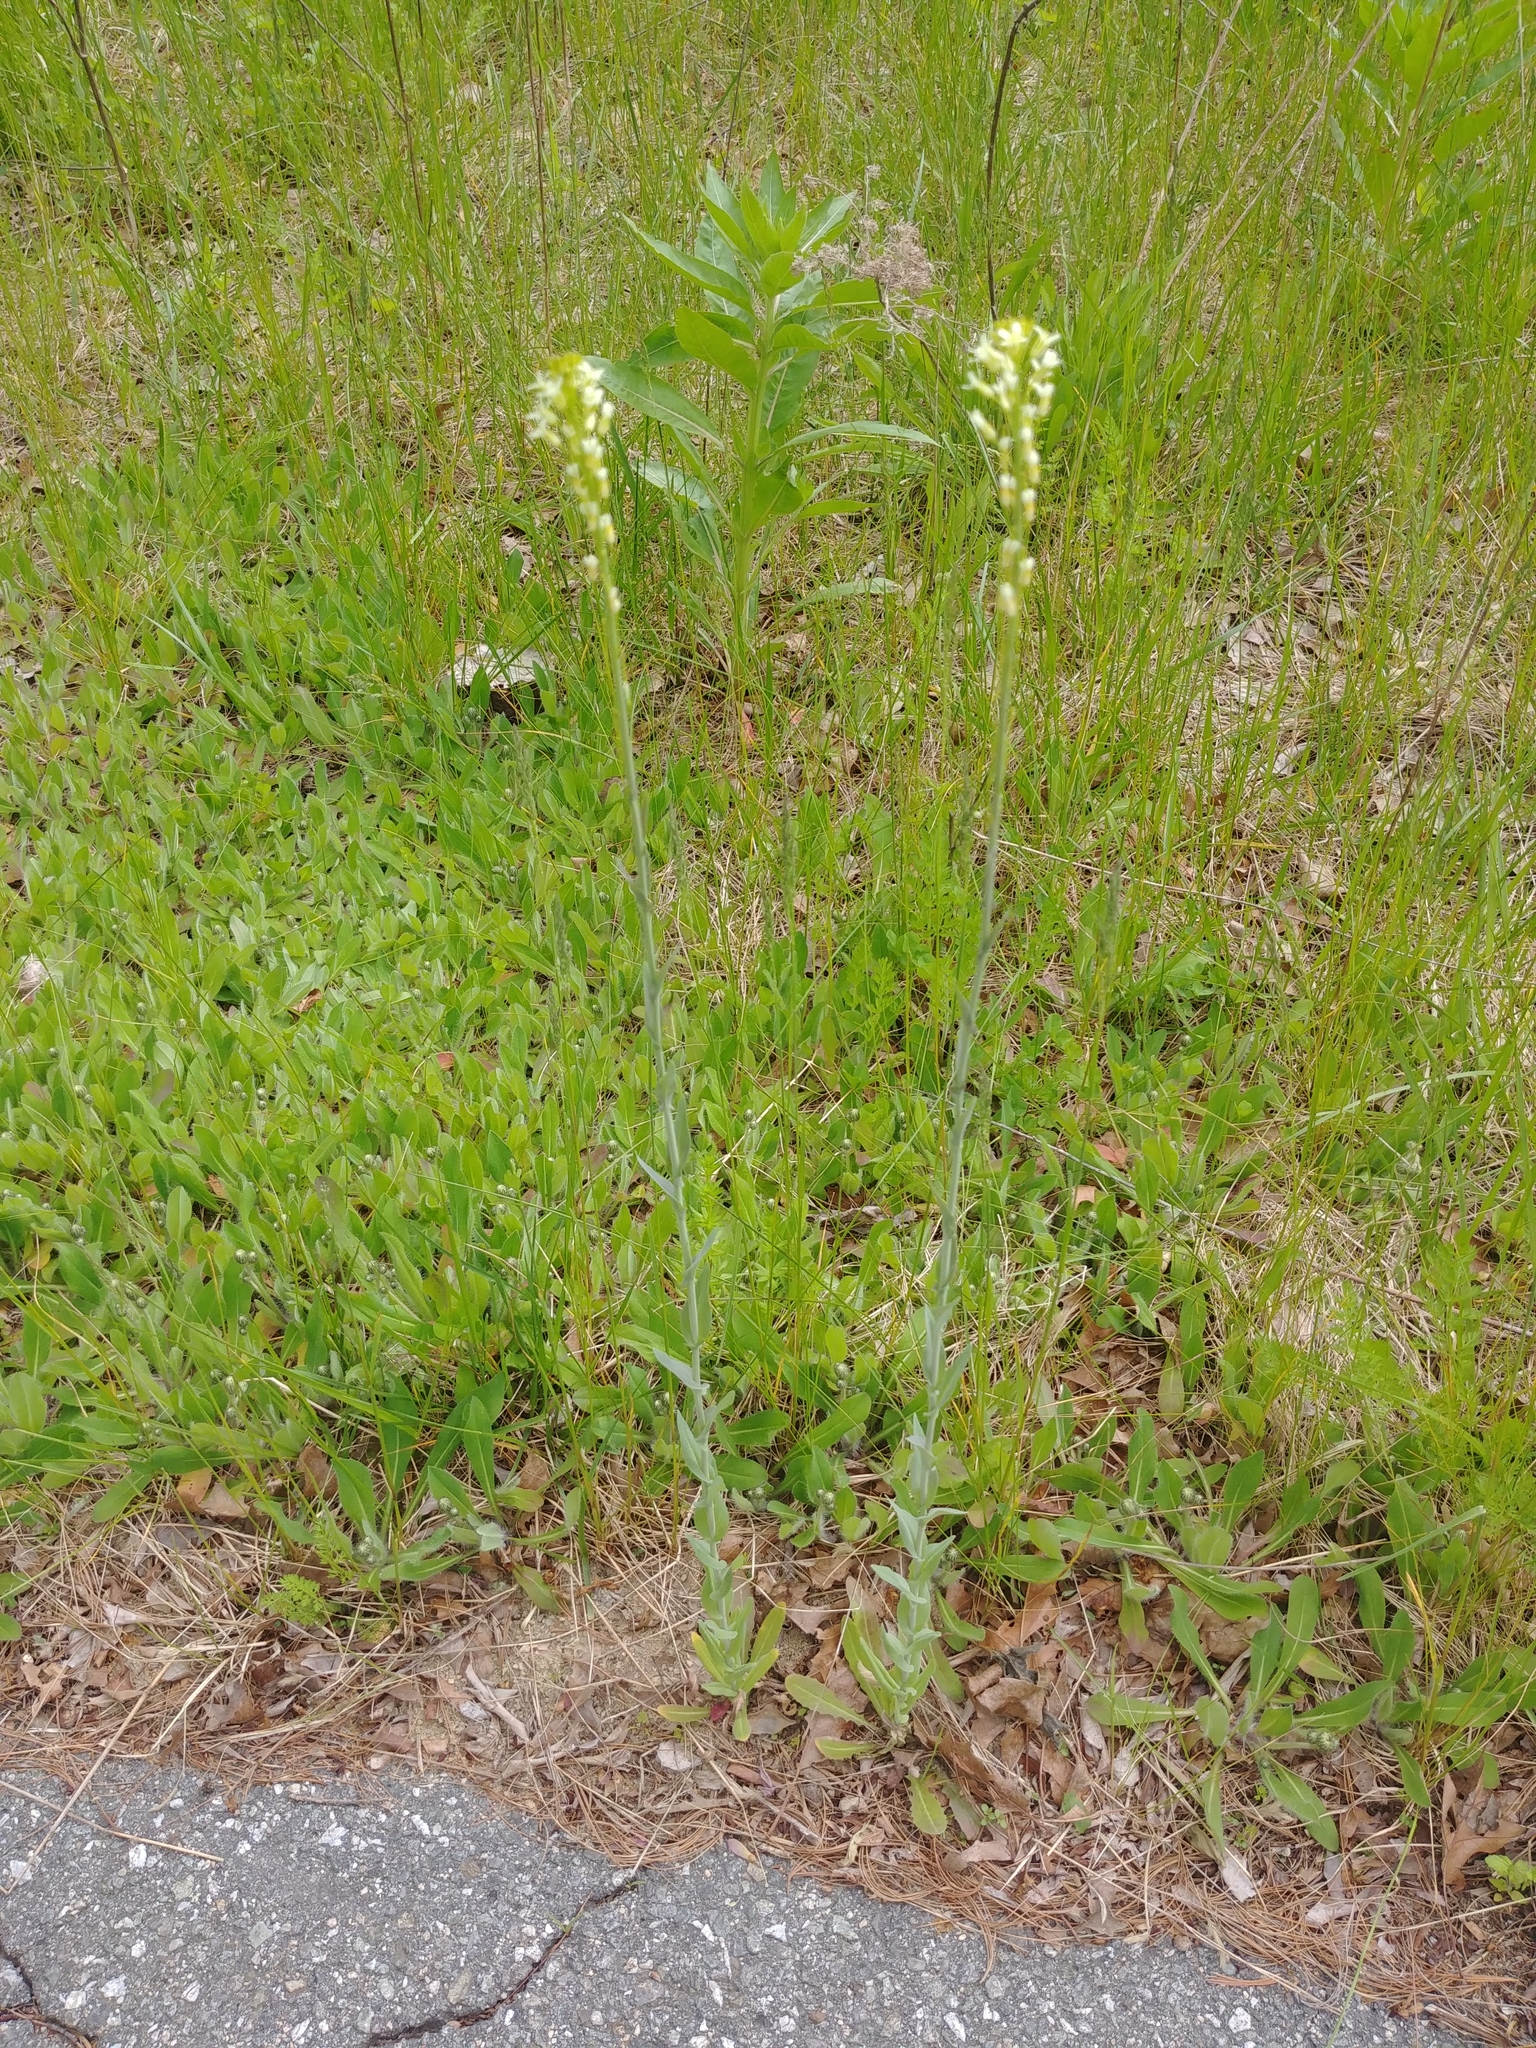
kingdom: Plantae
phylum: Tracheophyta
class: Magnoliopsida
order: Brassicales
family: Brassicaceae
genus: Turritis
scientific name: Turritis glabra
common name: Tower rockcress
